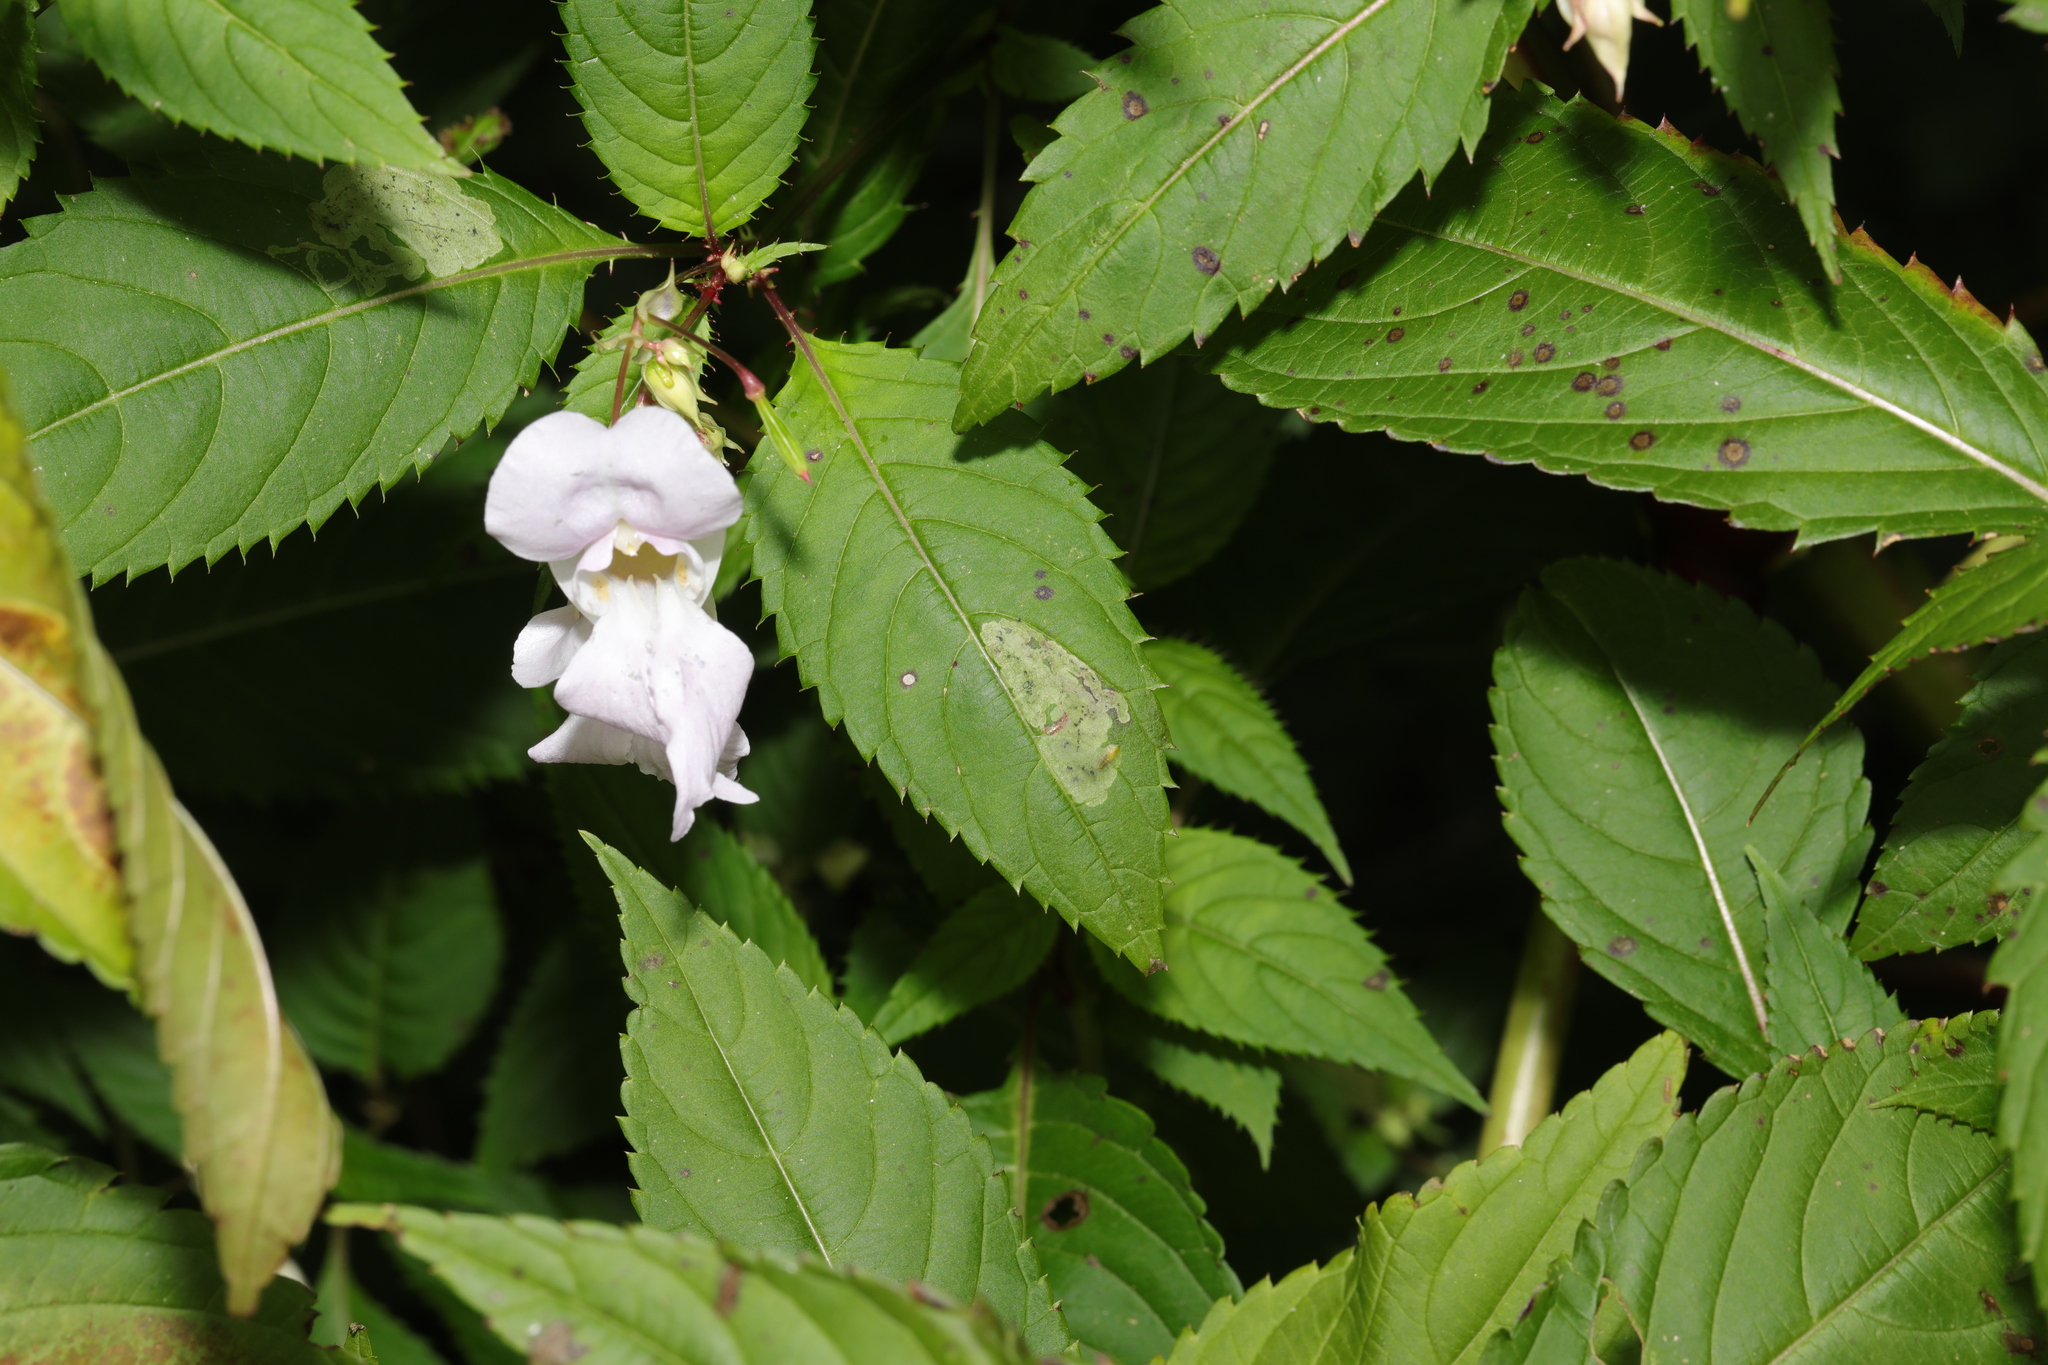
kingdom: Plantae
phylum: Tracheophyta
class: Magnoliopsida
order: Ericales
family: Balsaminaceae
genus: Impatiens
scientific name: Impatiens glandulifera
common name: Himalayan balsam
